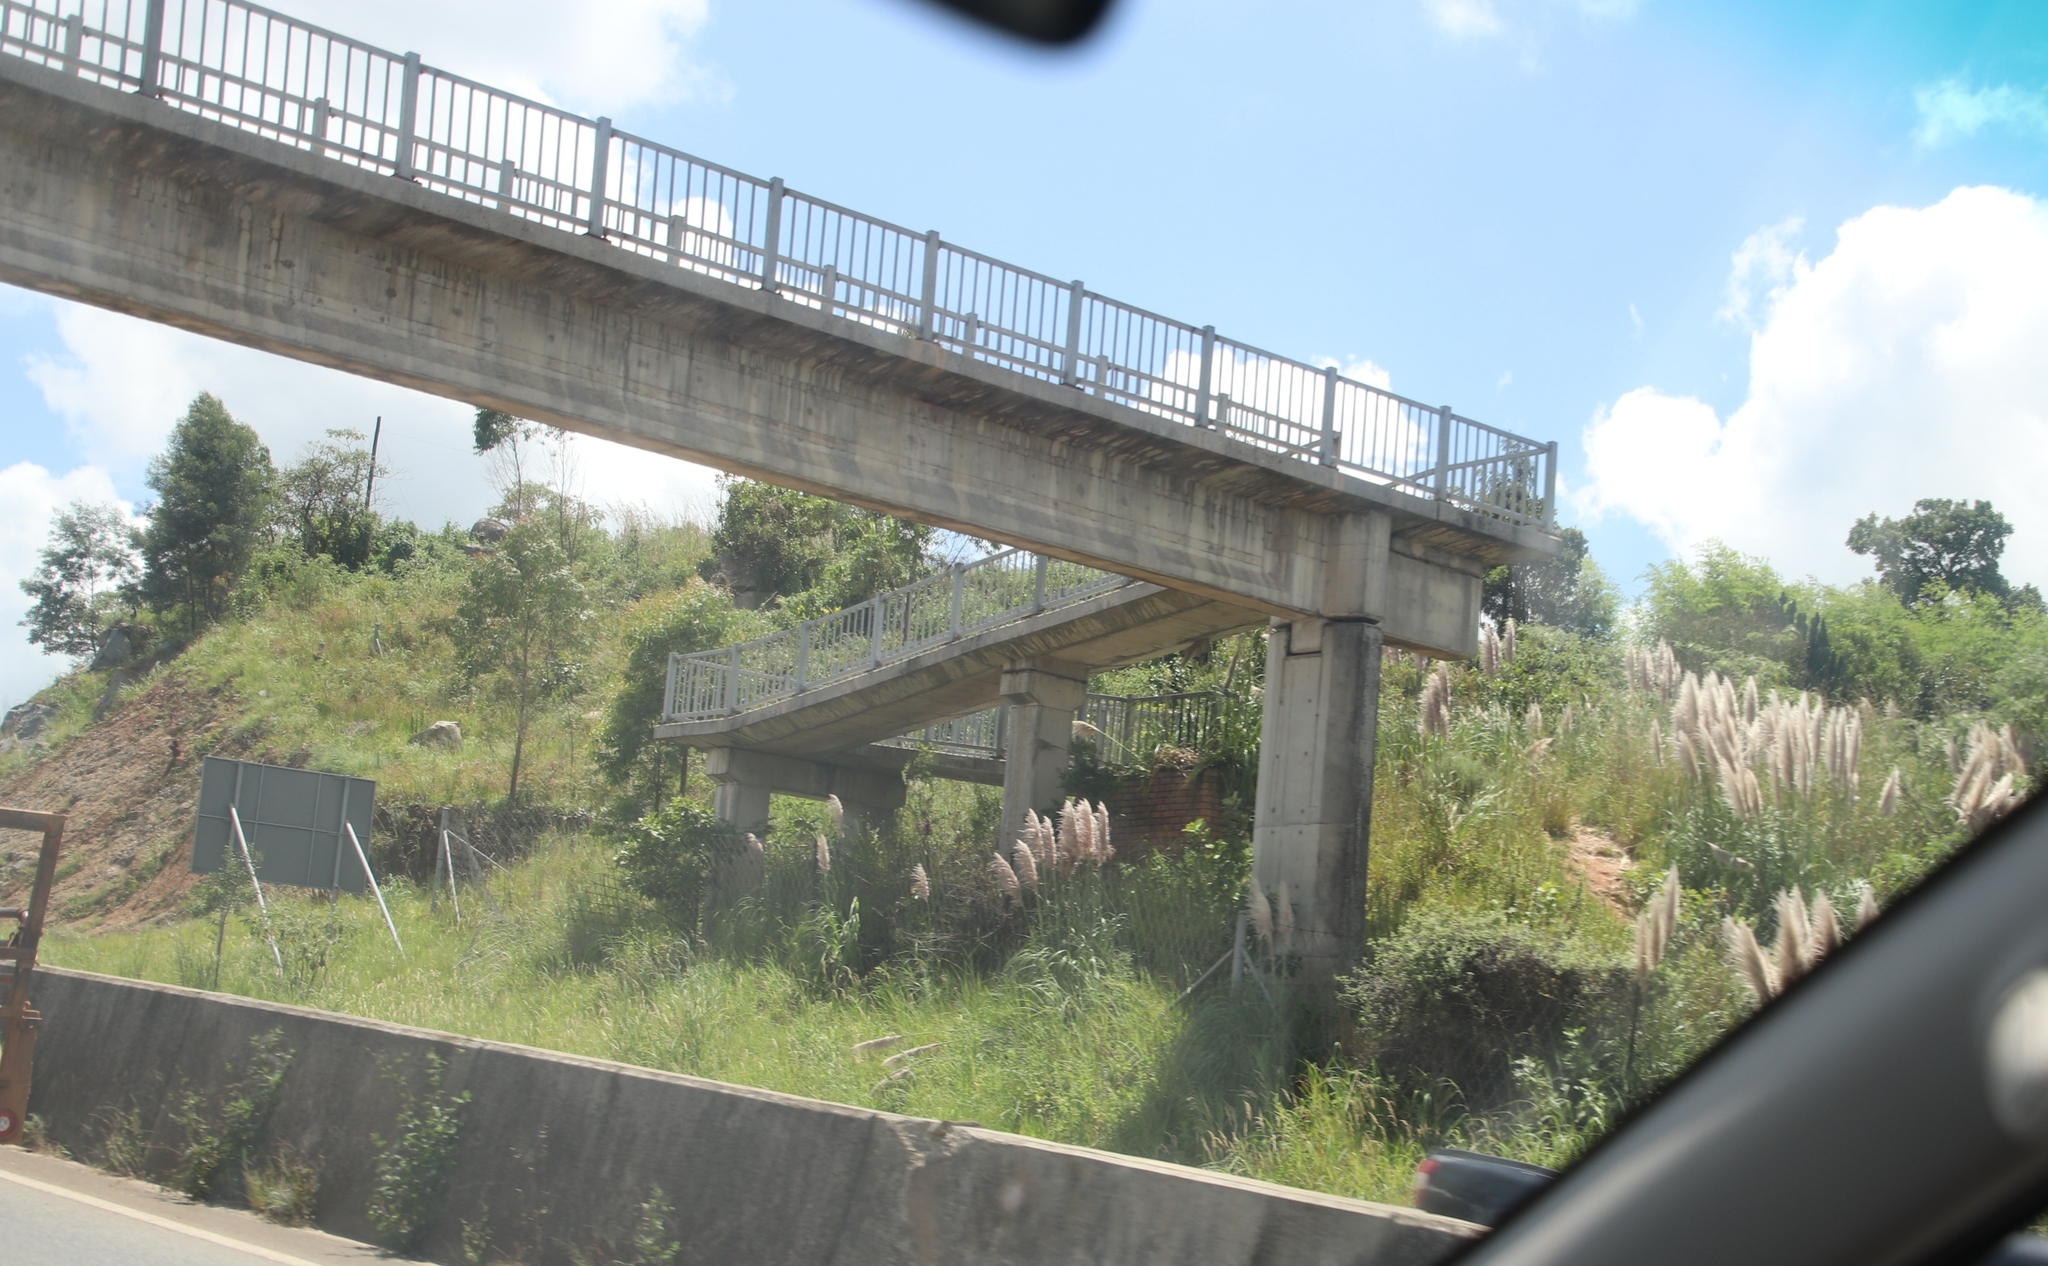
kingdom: Plantae
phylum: Tracheophyta
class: Liliopsida
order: Poales
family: Poaceae
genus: Cortaderia
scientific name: Cortaderia selloana
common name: Uruguayan pampas grass
